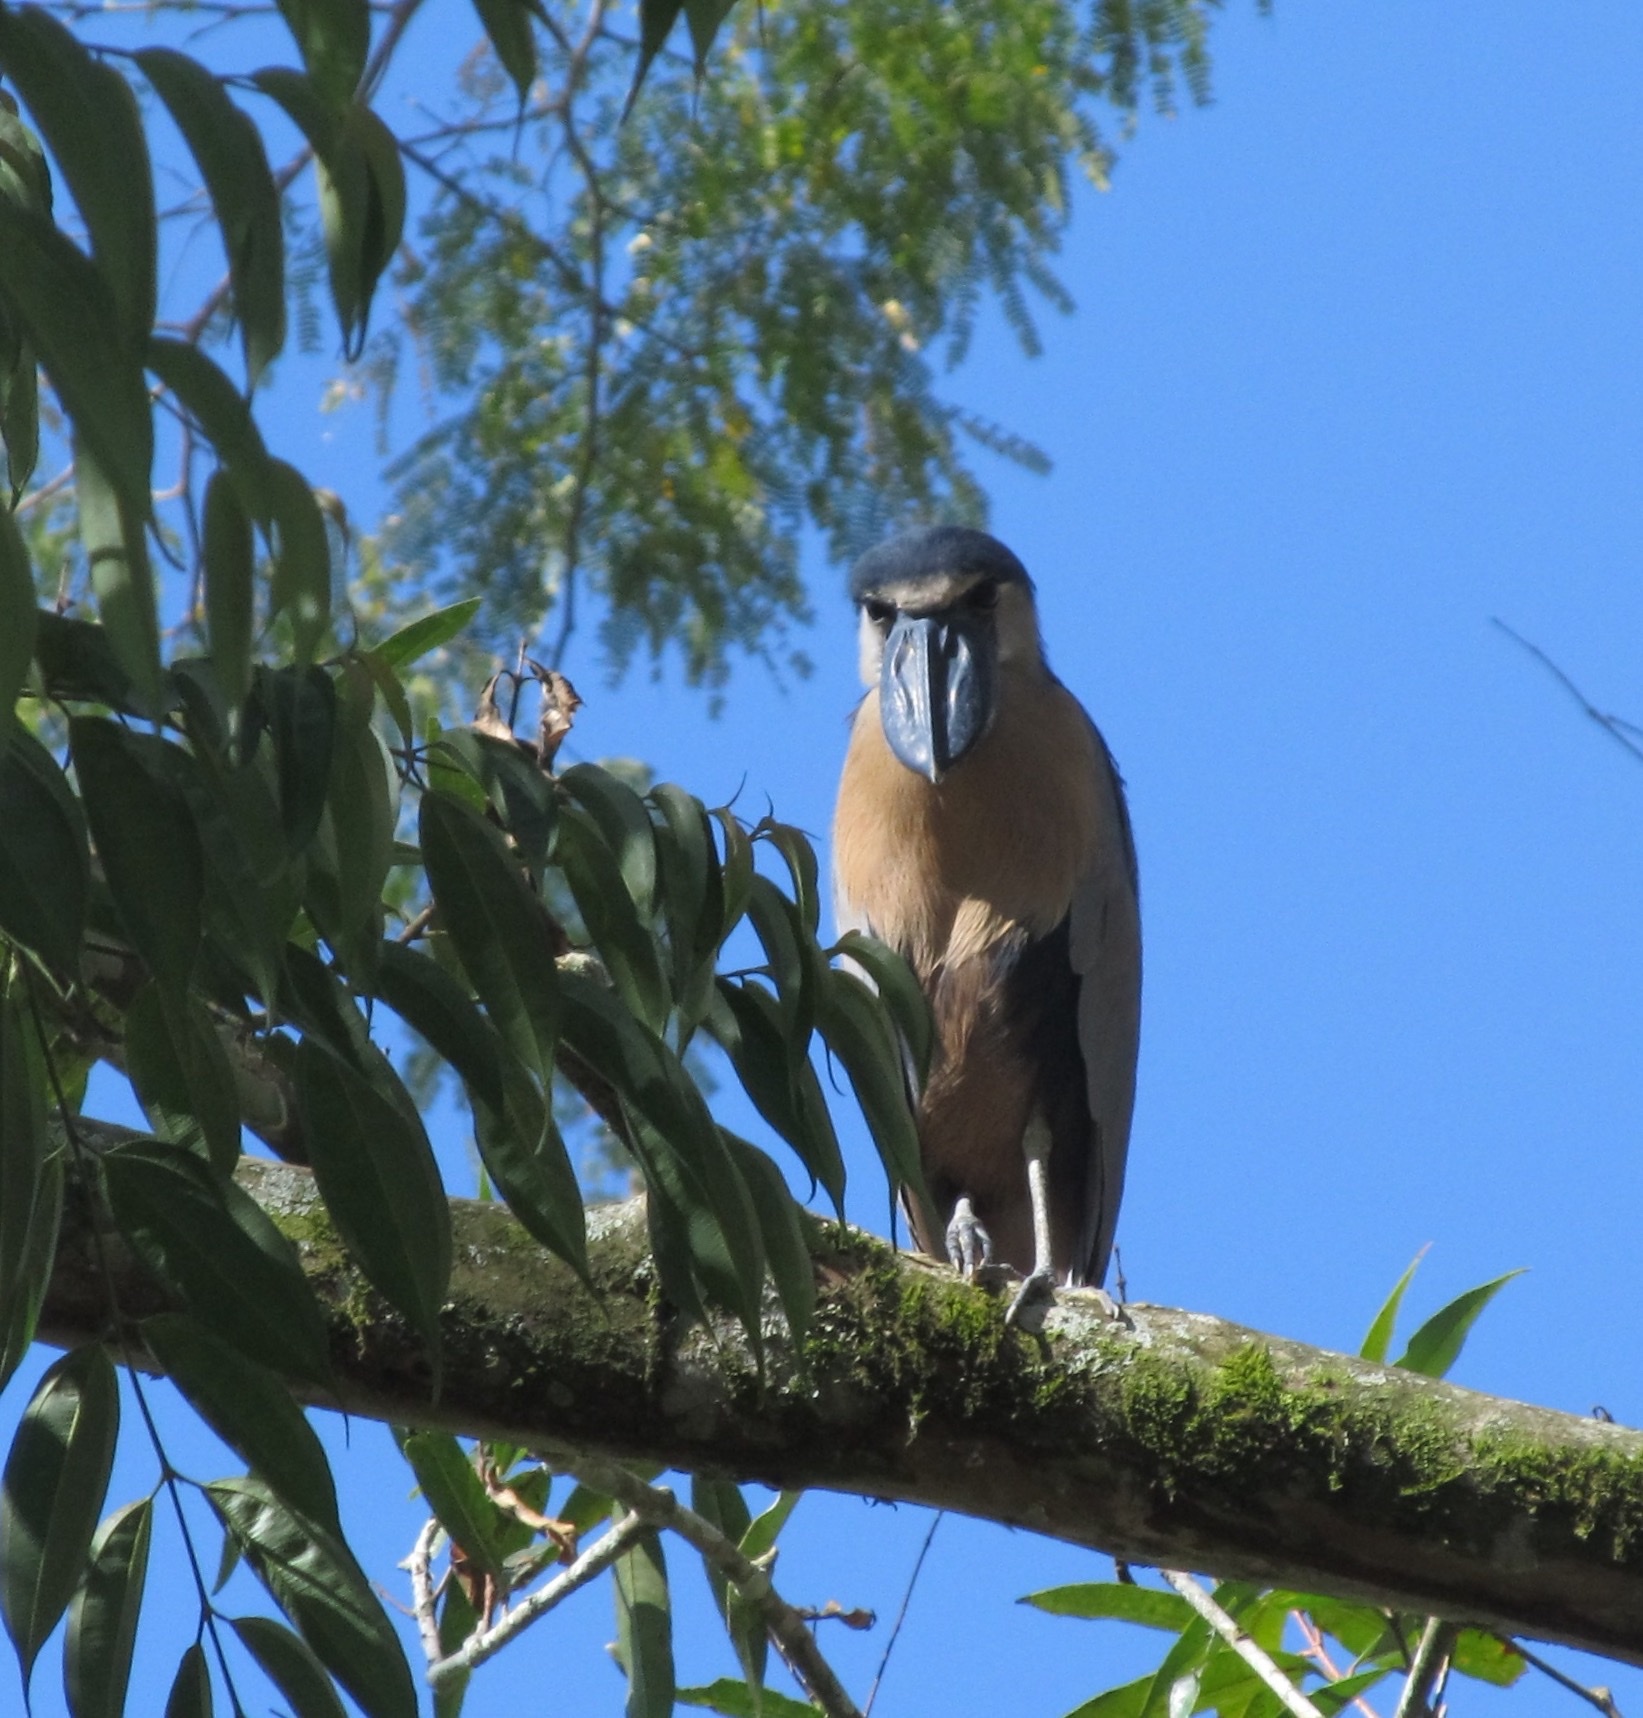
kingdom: Animalia
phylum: Chordata
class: Aves
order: Pelecaniformes
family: Ardeidae
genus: Cochlearius
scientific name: Cochlearius cochlearius
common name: Boat-billed heron
